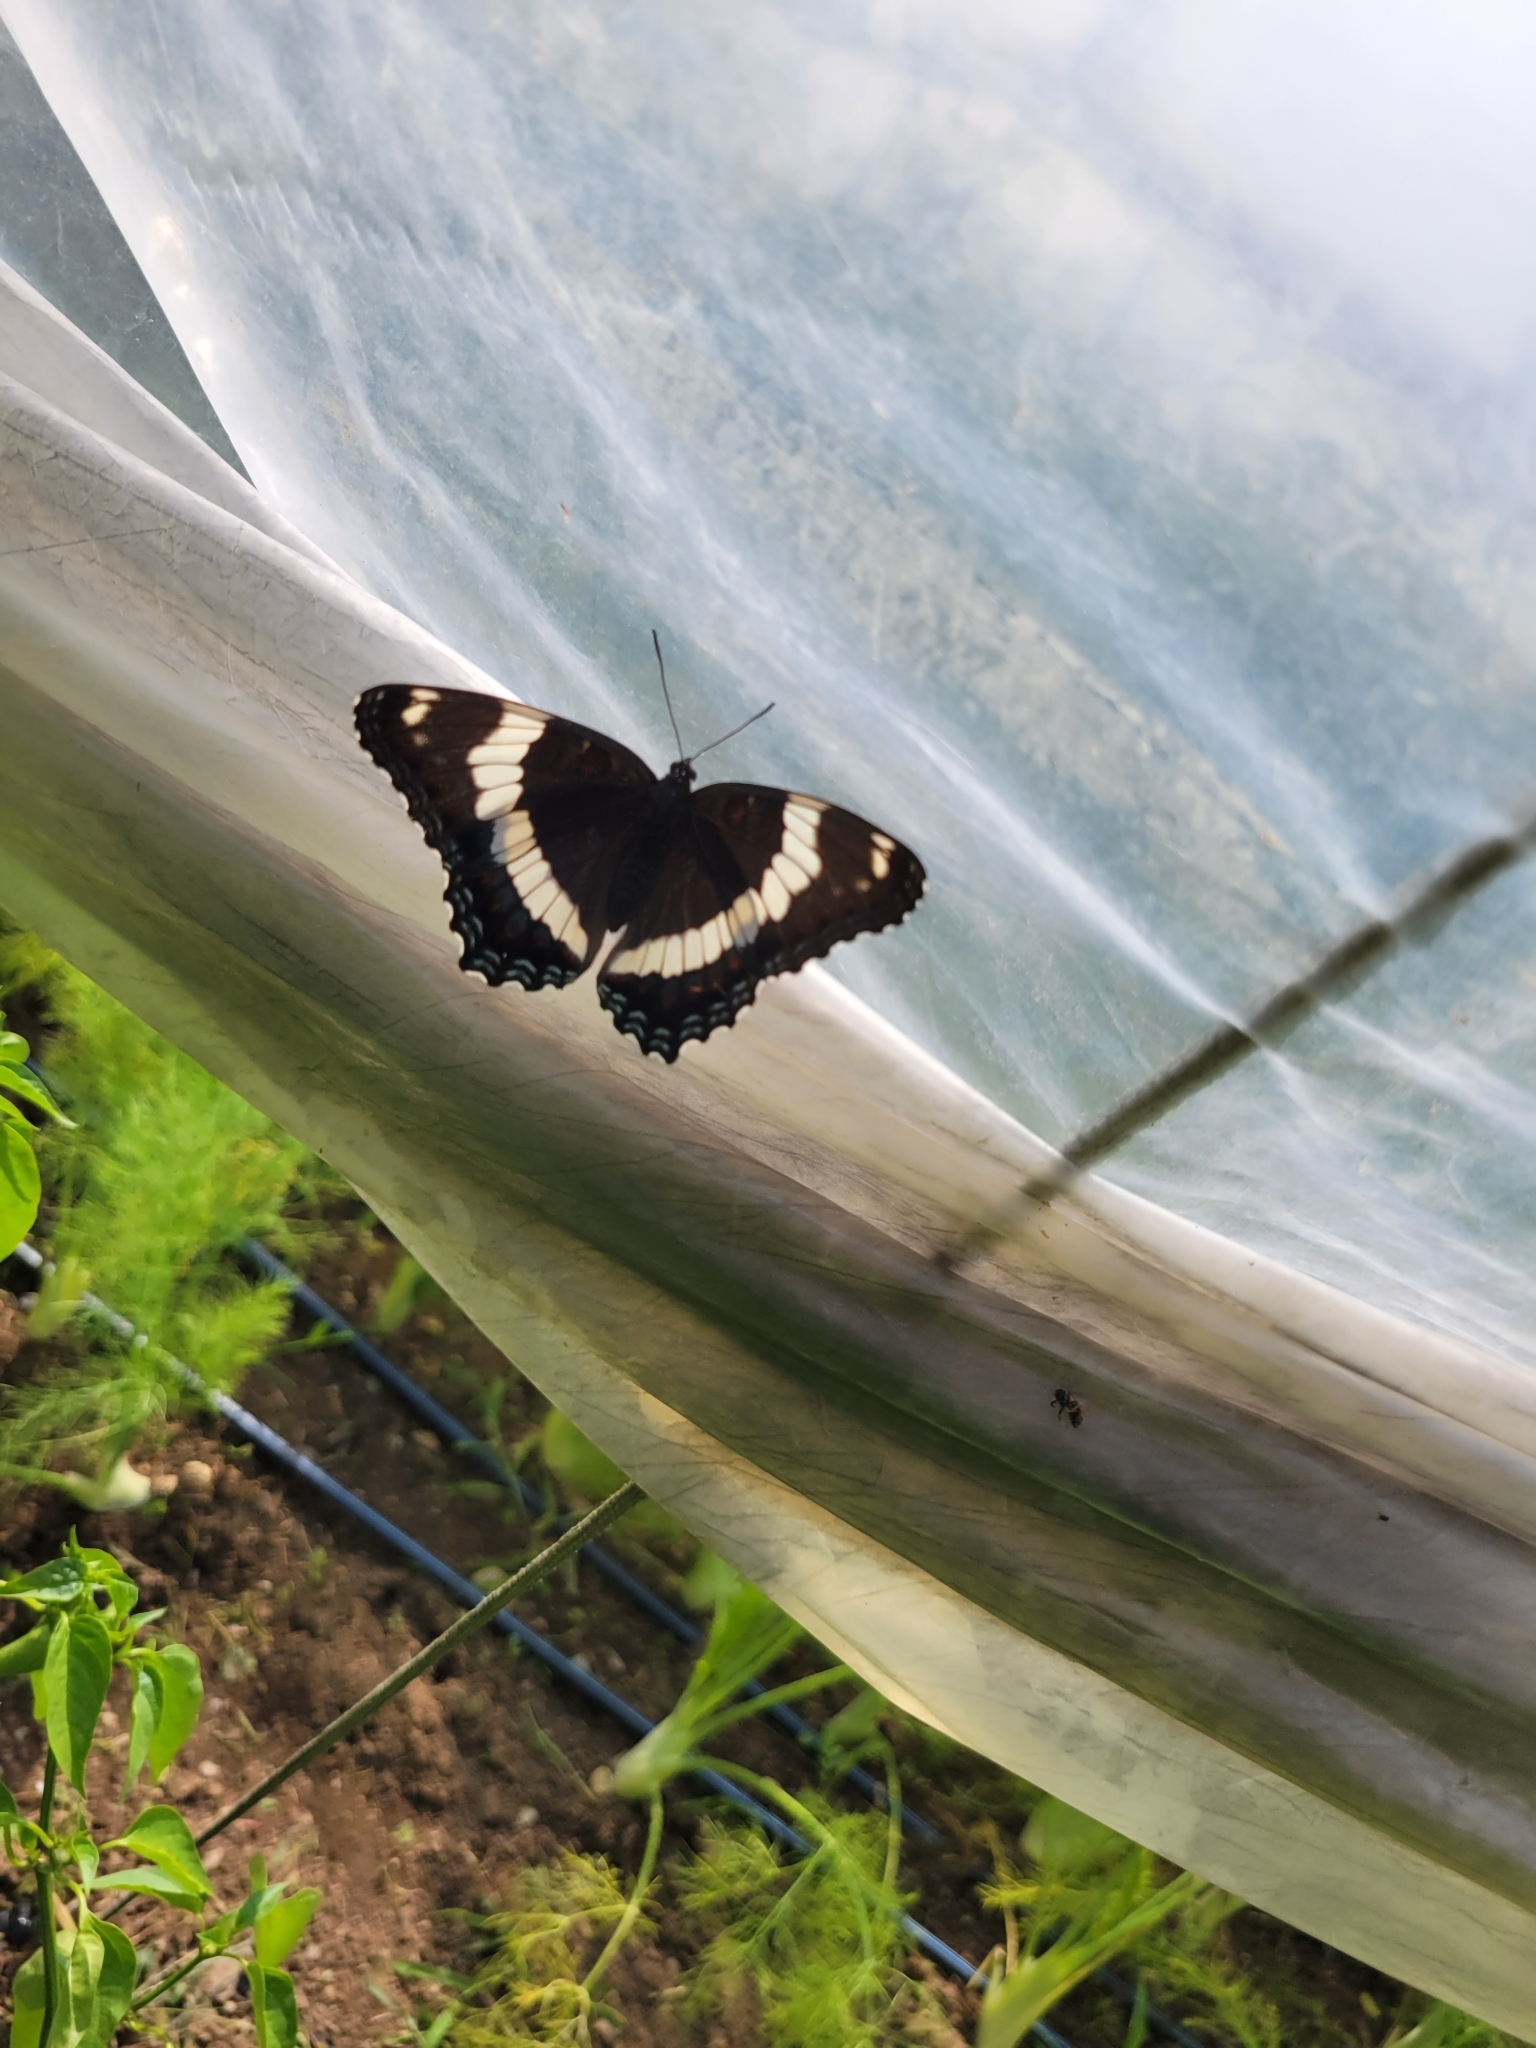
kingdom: Animalia
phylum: Arthropoda
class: Insecta
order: Lepidoptera
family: Nymphalidae
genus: Limenitis
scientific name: Limenitis arthemis
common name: Red-spotted admiral
